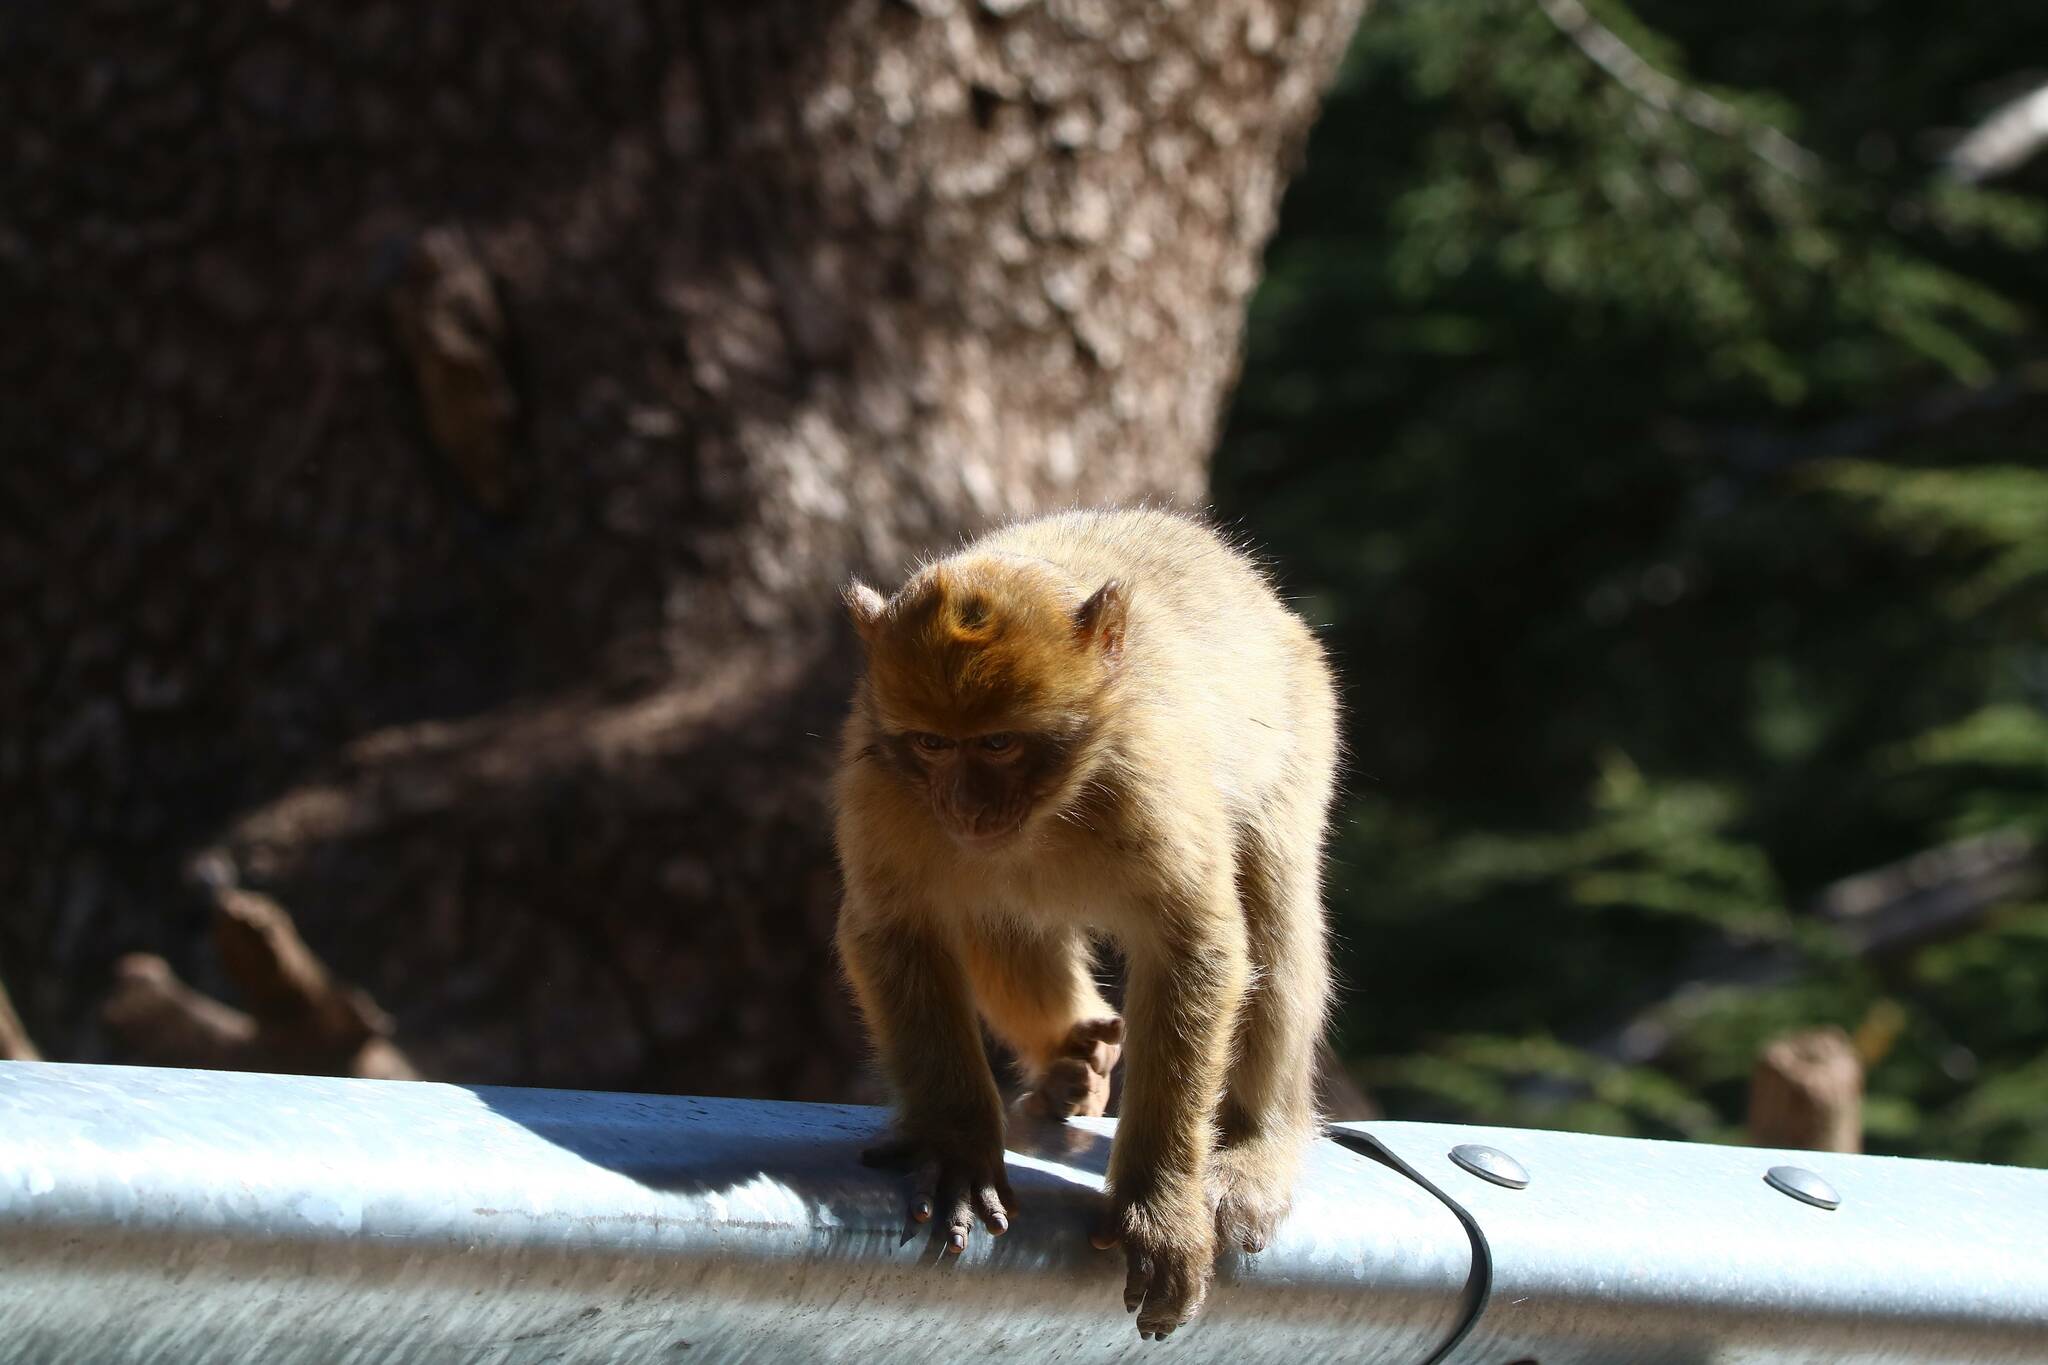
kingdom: Animalia
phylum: Chordata
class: Mammalia
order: Primates
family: Cercopithecidae
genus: Macaca
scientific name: Macaca sylvanus
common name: Barbary macaque
